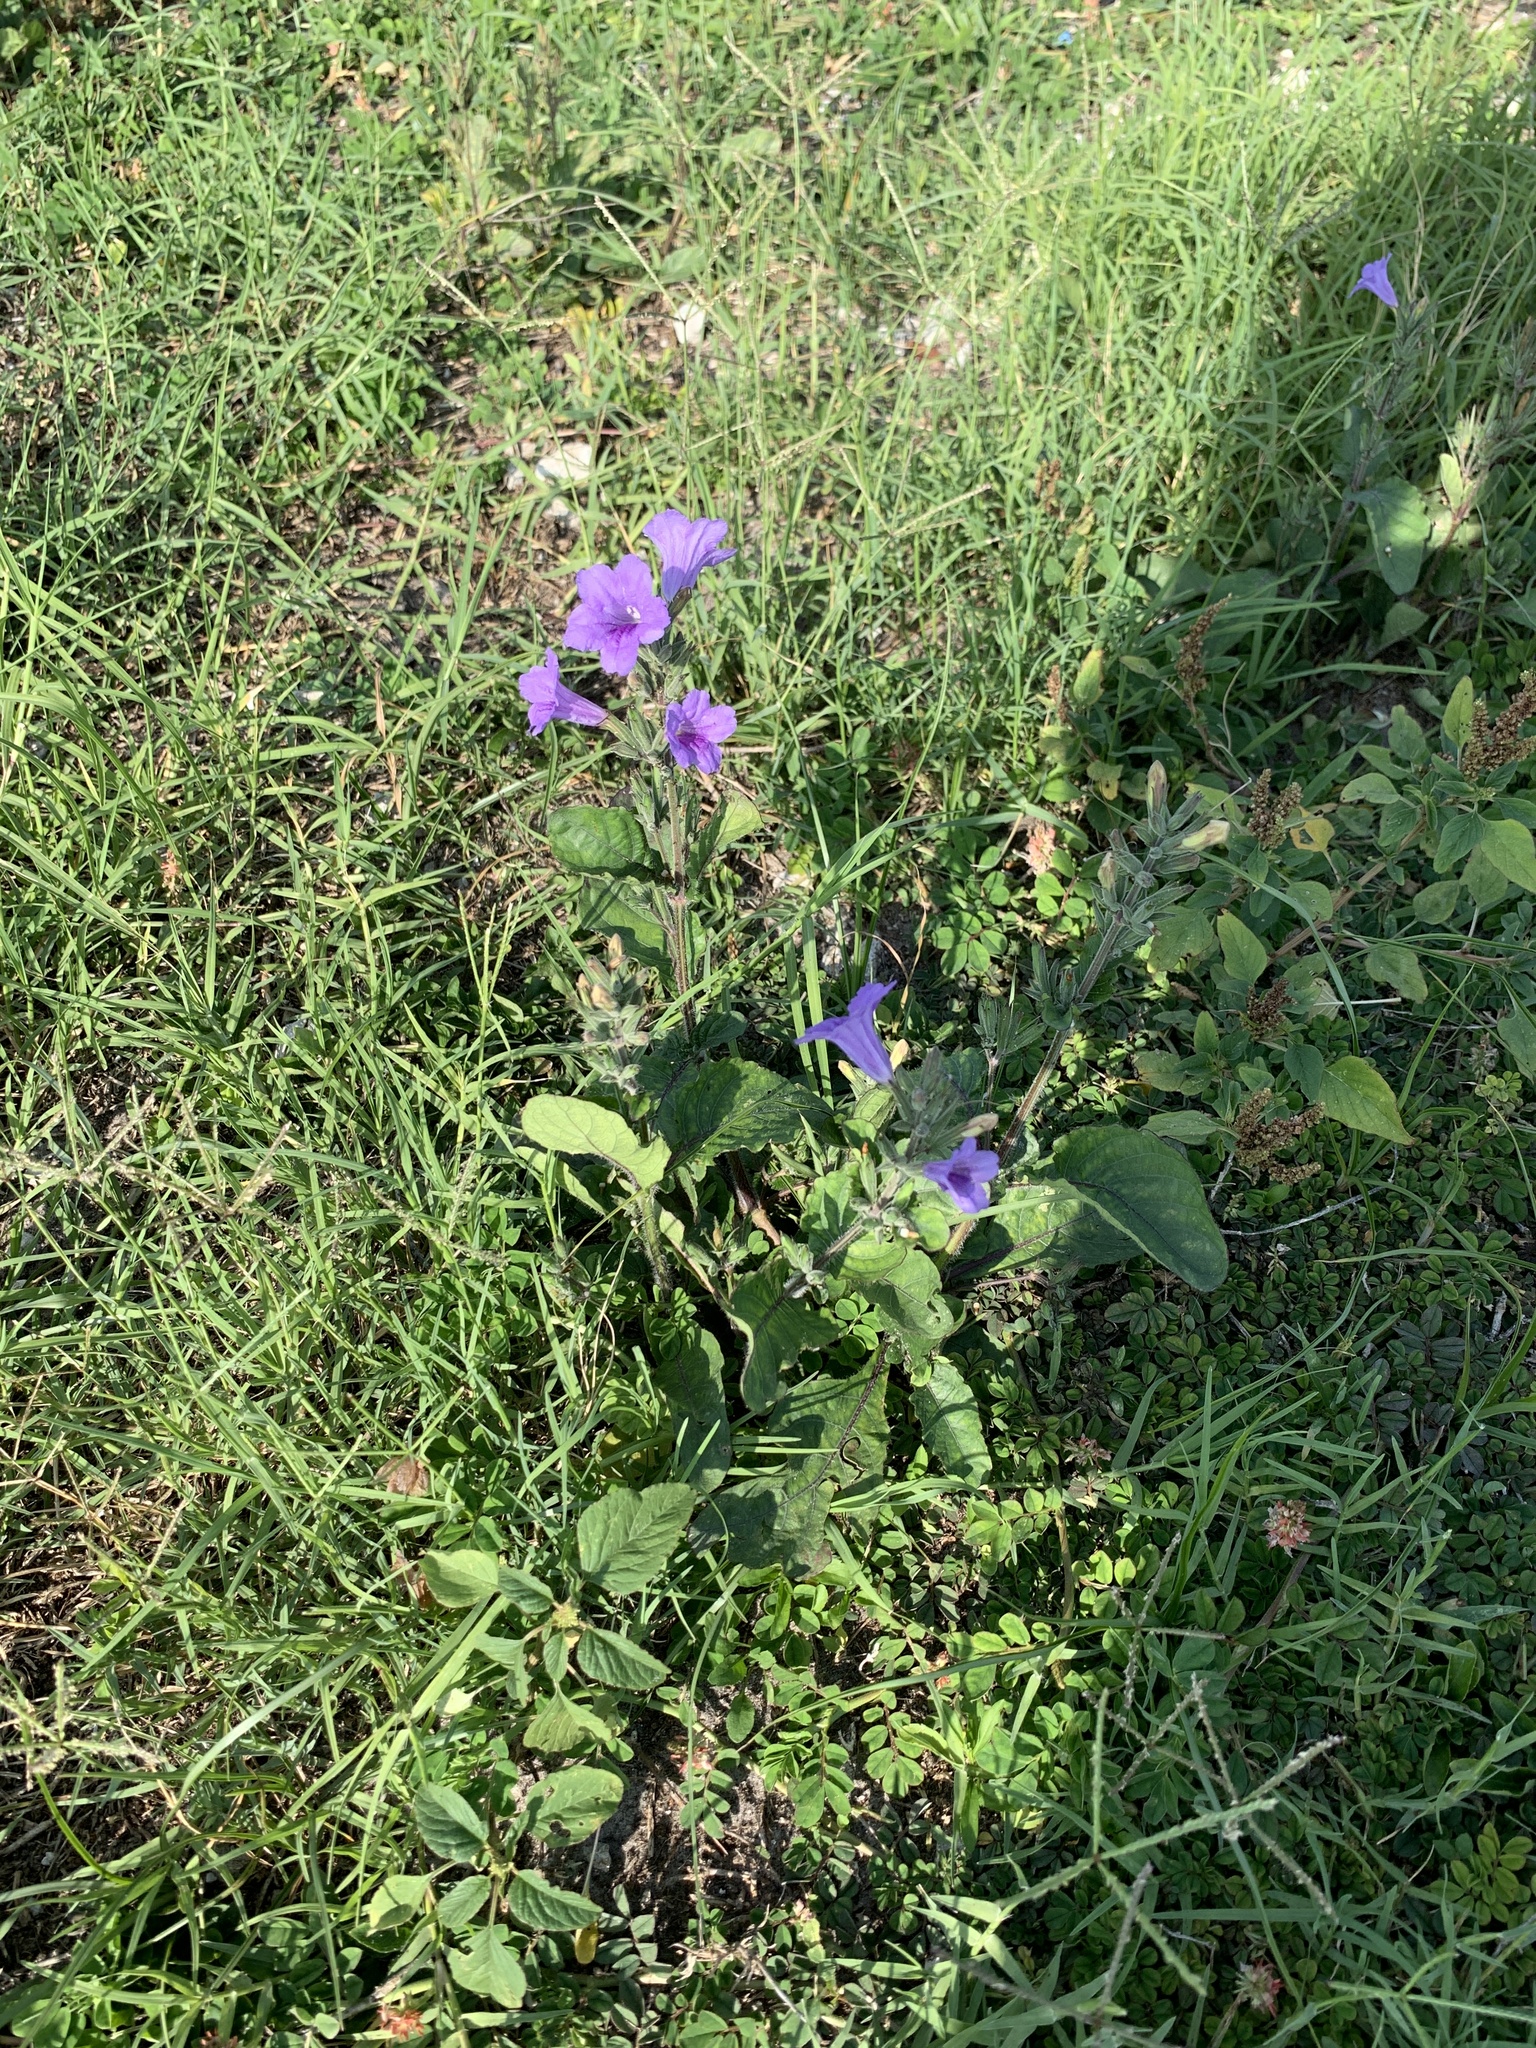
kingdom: Plantae
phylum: Tracheophyta
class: Magnoliopsida
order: Lamiales
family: Acanthaceae
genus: Ruellia
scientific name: Ruellia ciliatiflora
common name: Hairyflower wild petunia
